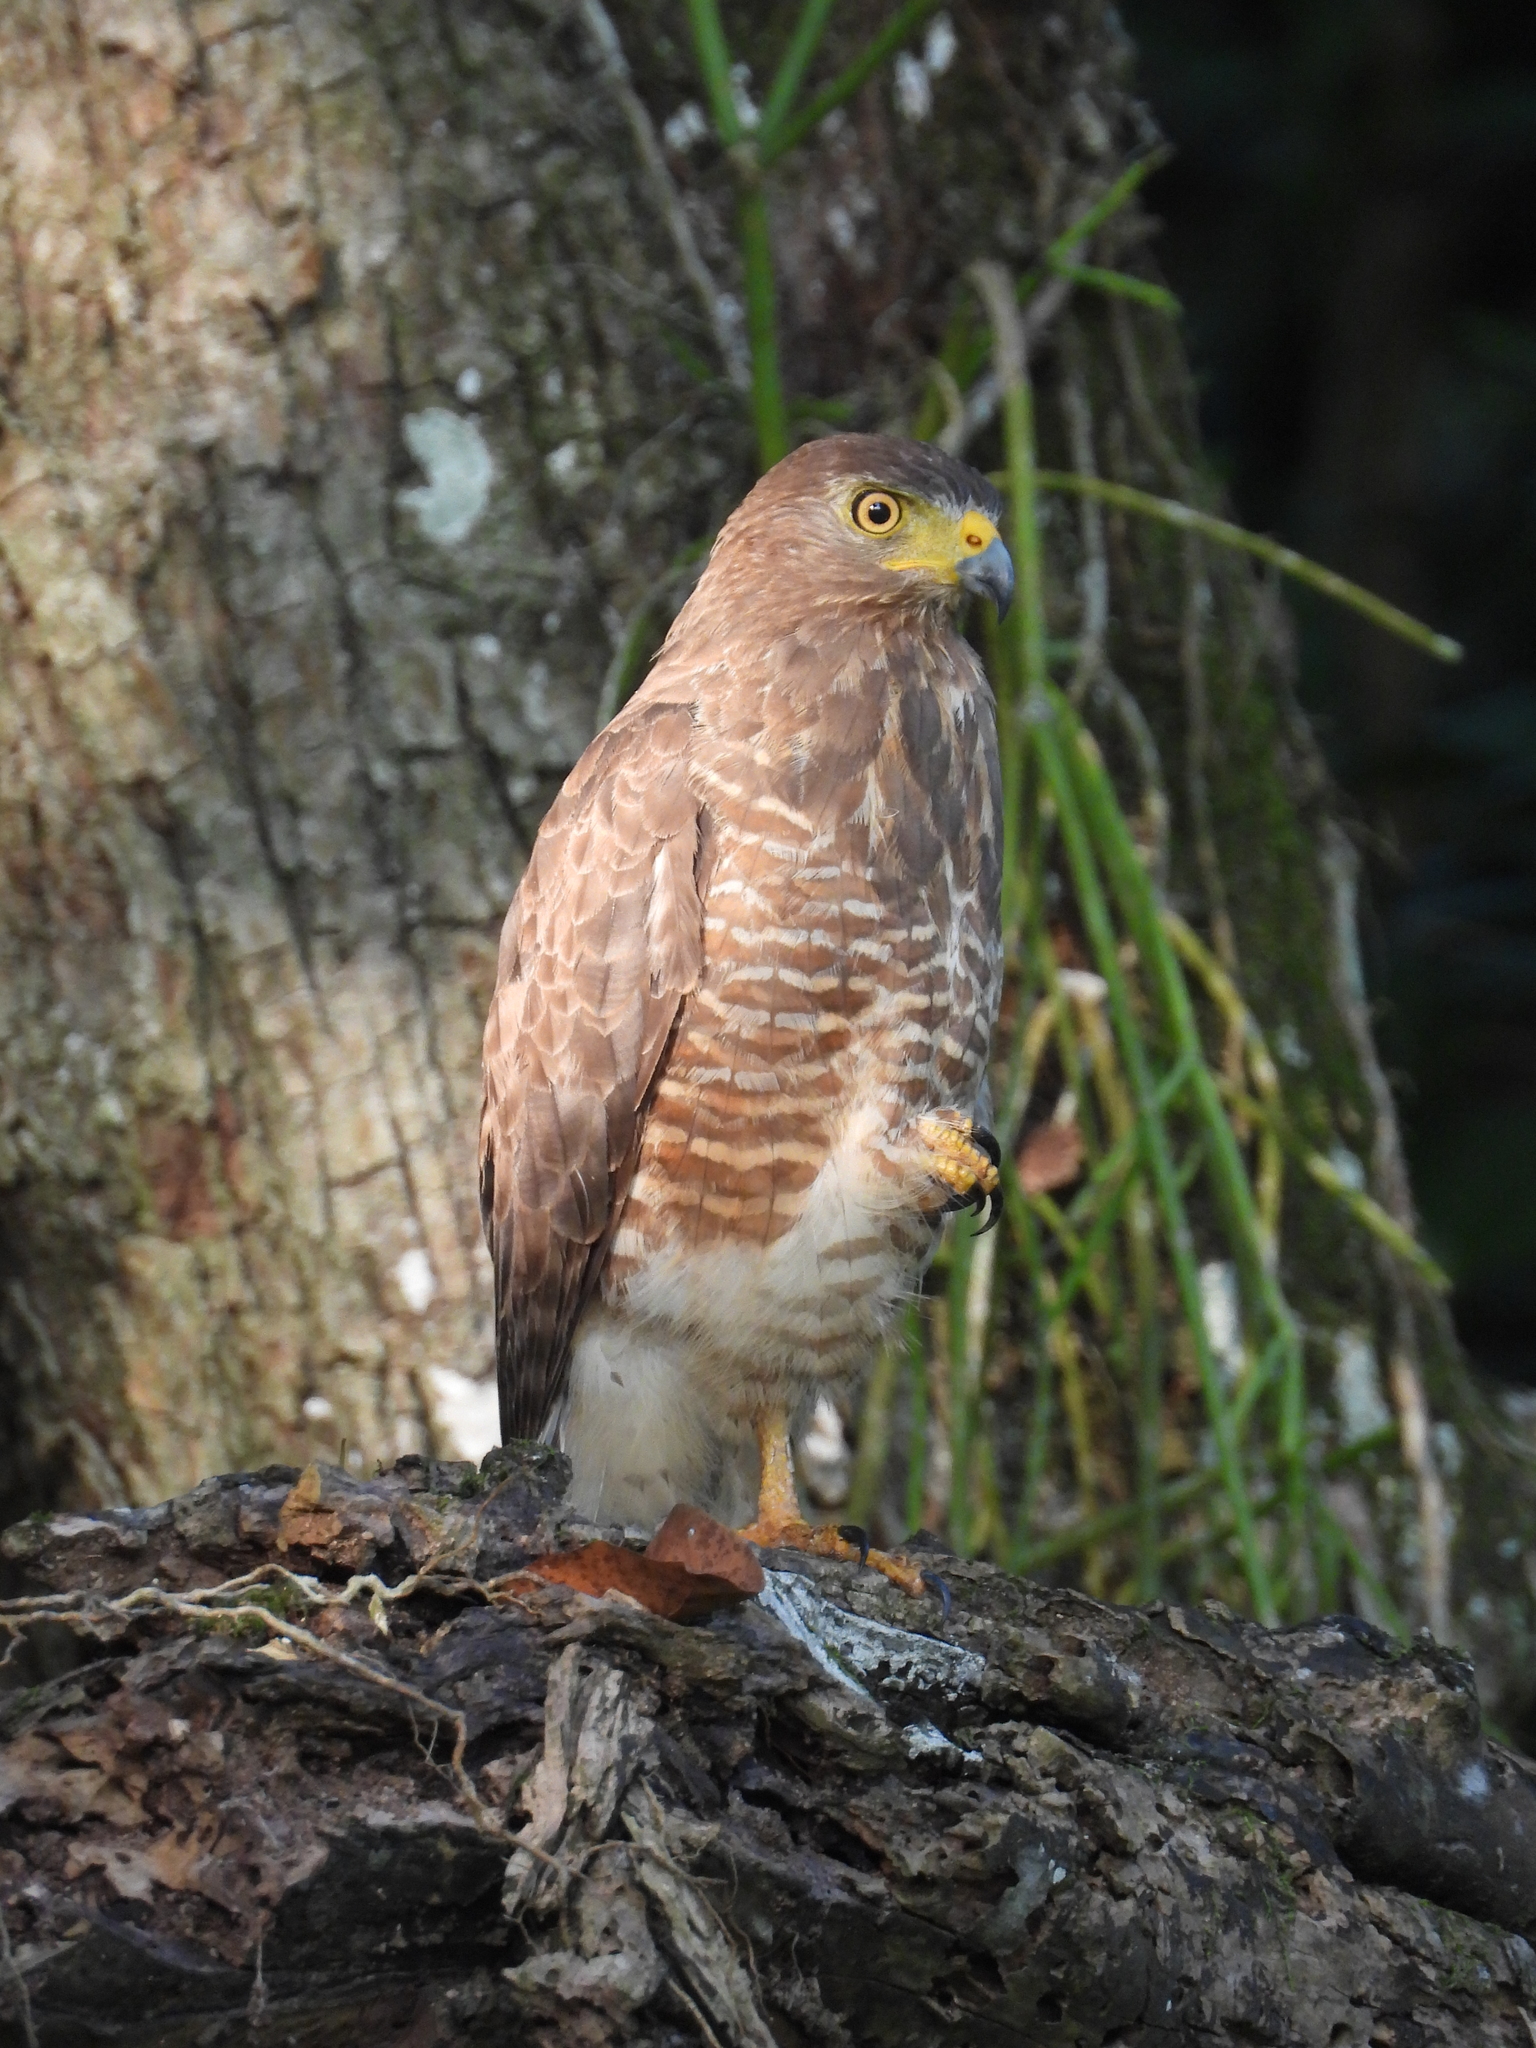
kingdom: Animalia
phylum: Chordata
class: Aves
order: Accipitriformes
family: Accipitridae
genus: Rupornis
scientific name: Rupornis magnirostris
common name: Roadside hawk
